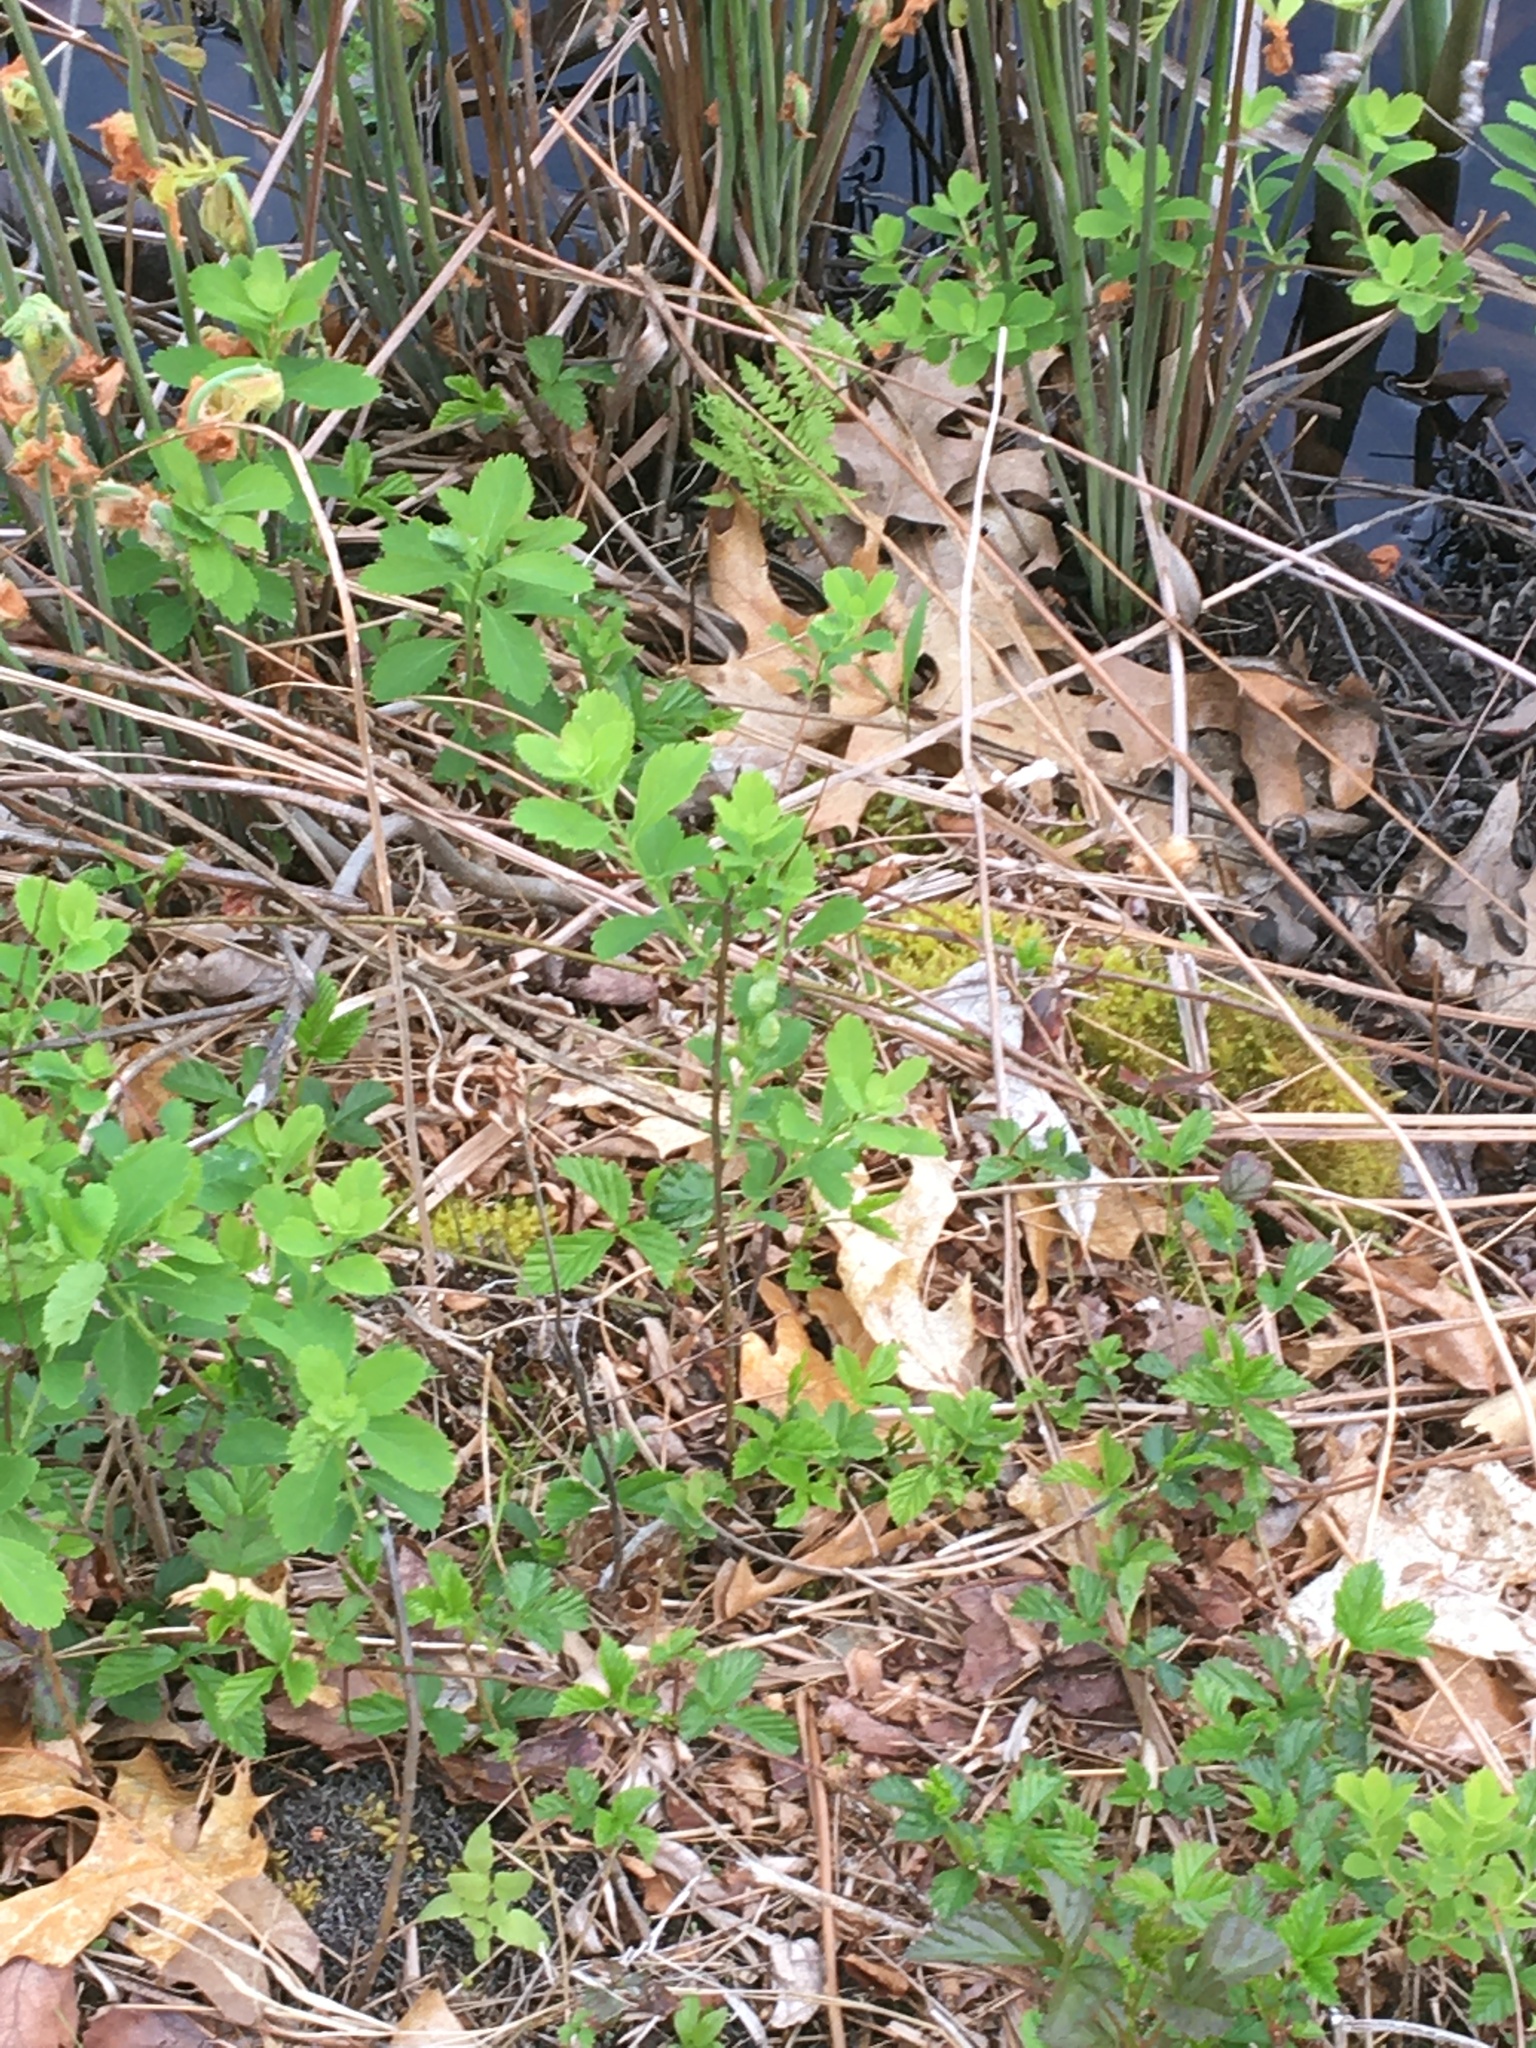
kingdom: Animalia
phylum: Chordata
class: Squamata
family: Colubridae
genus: Thamnophis
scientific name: Thamnophis sirtalis
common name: Common garter snake
